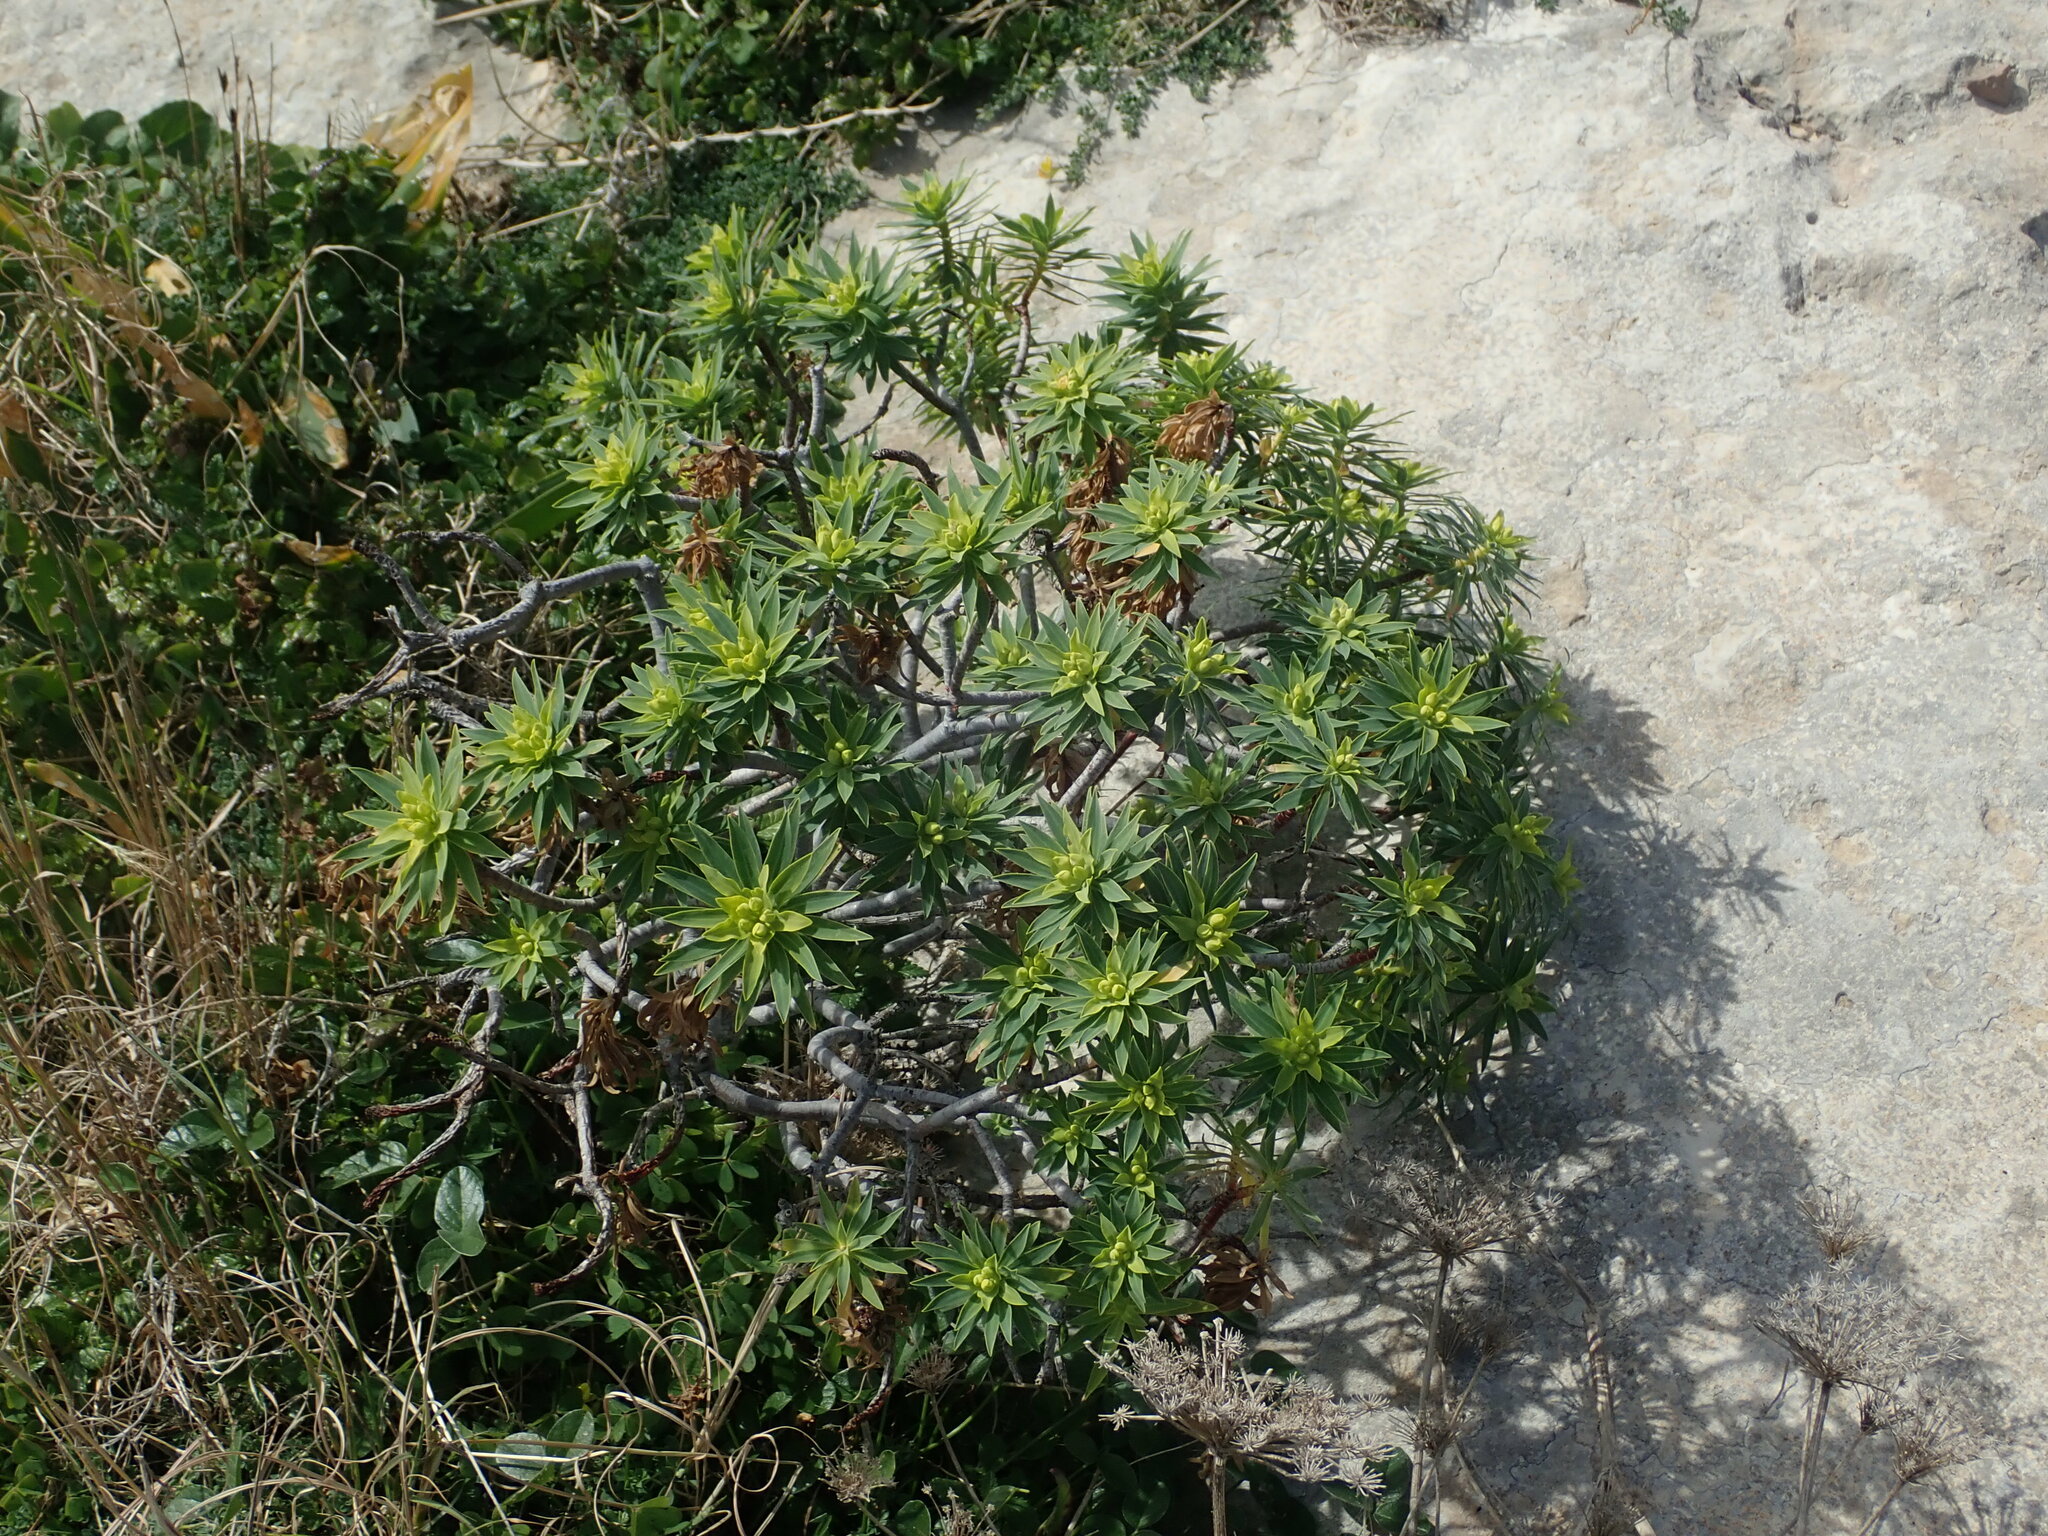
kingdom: Plantae
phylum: Tracheophyta
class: Magnoliopsida
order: Malpighiales
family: Euphorbiaceae
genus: Euphorbia
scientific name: Euphorbia dendroides
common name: Tree spurge
